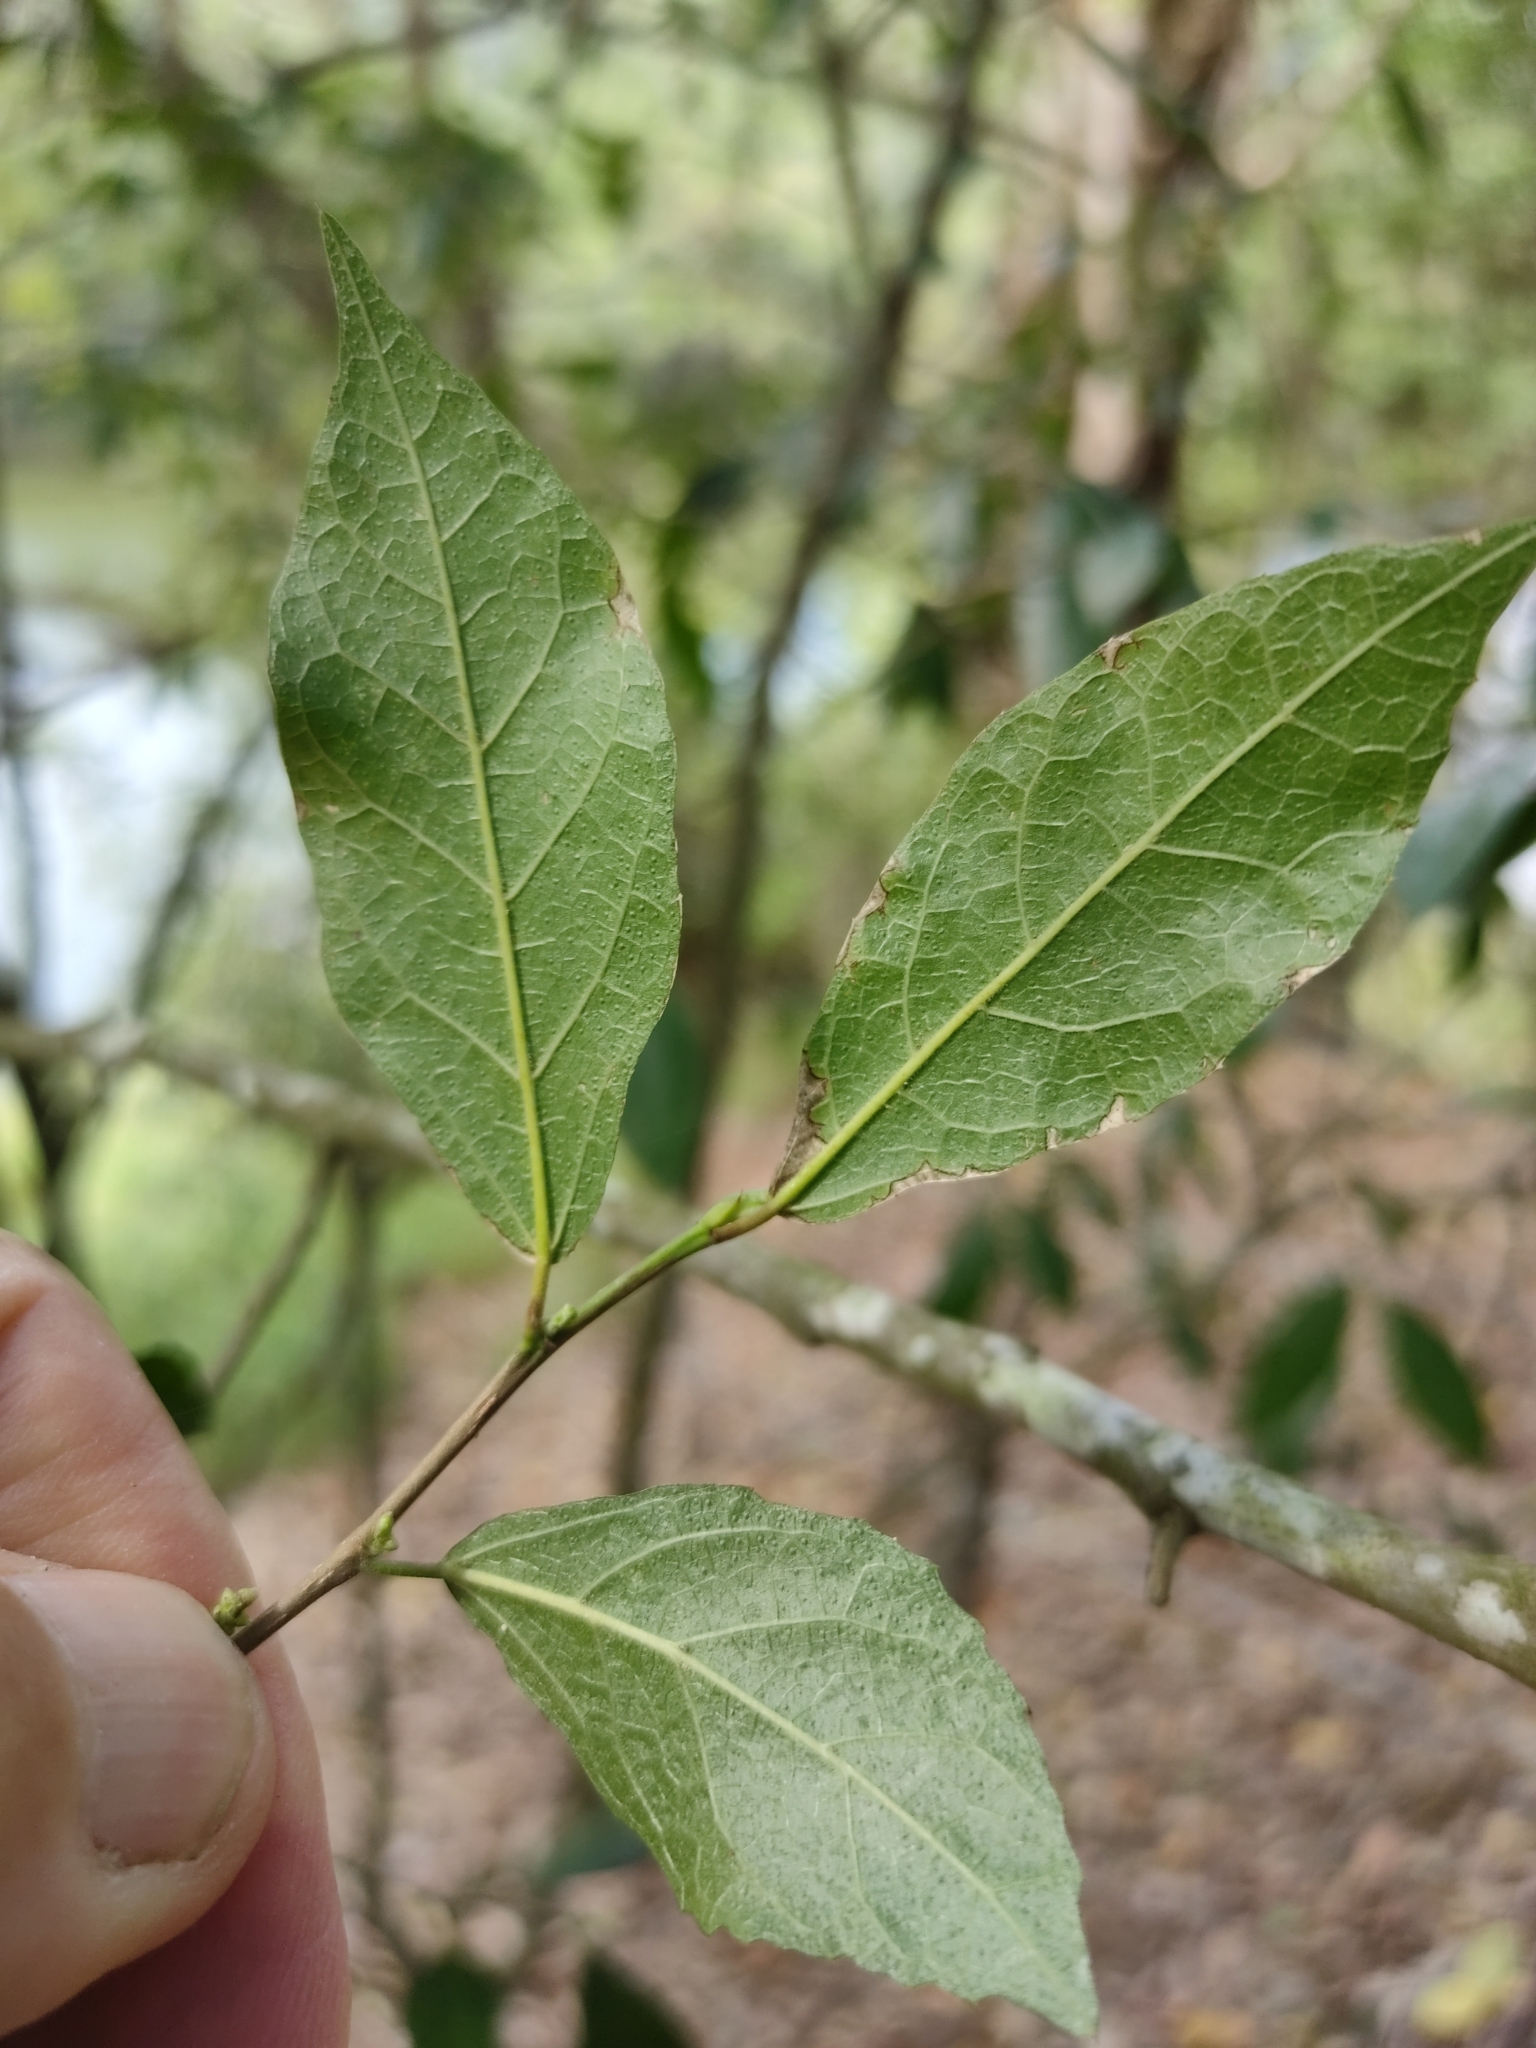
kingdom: Plantae
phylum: Tracheophyta
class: Magnoliopsida
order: Rosales
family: Moraceae
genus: Paratrophis
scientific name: Paratrophis pendulina
